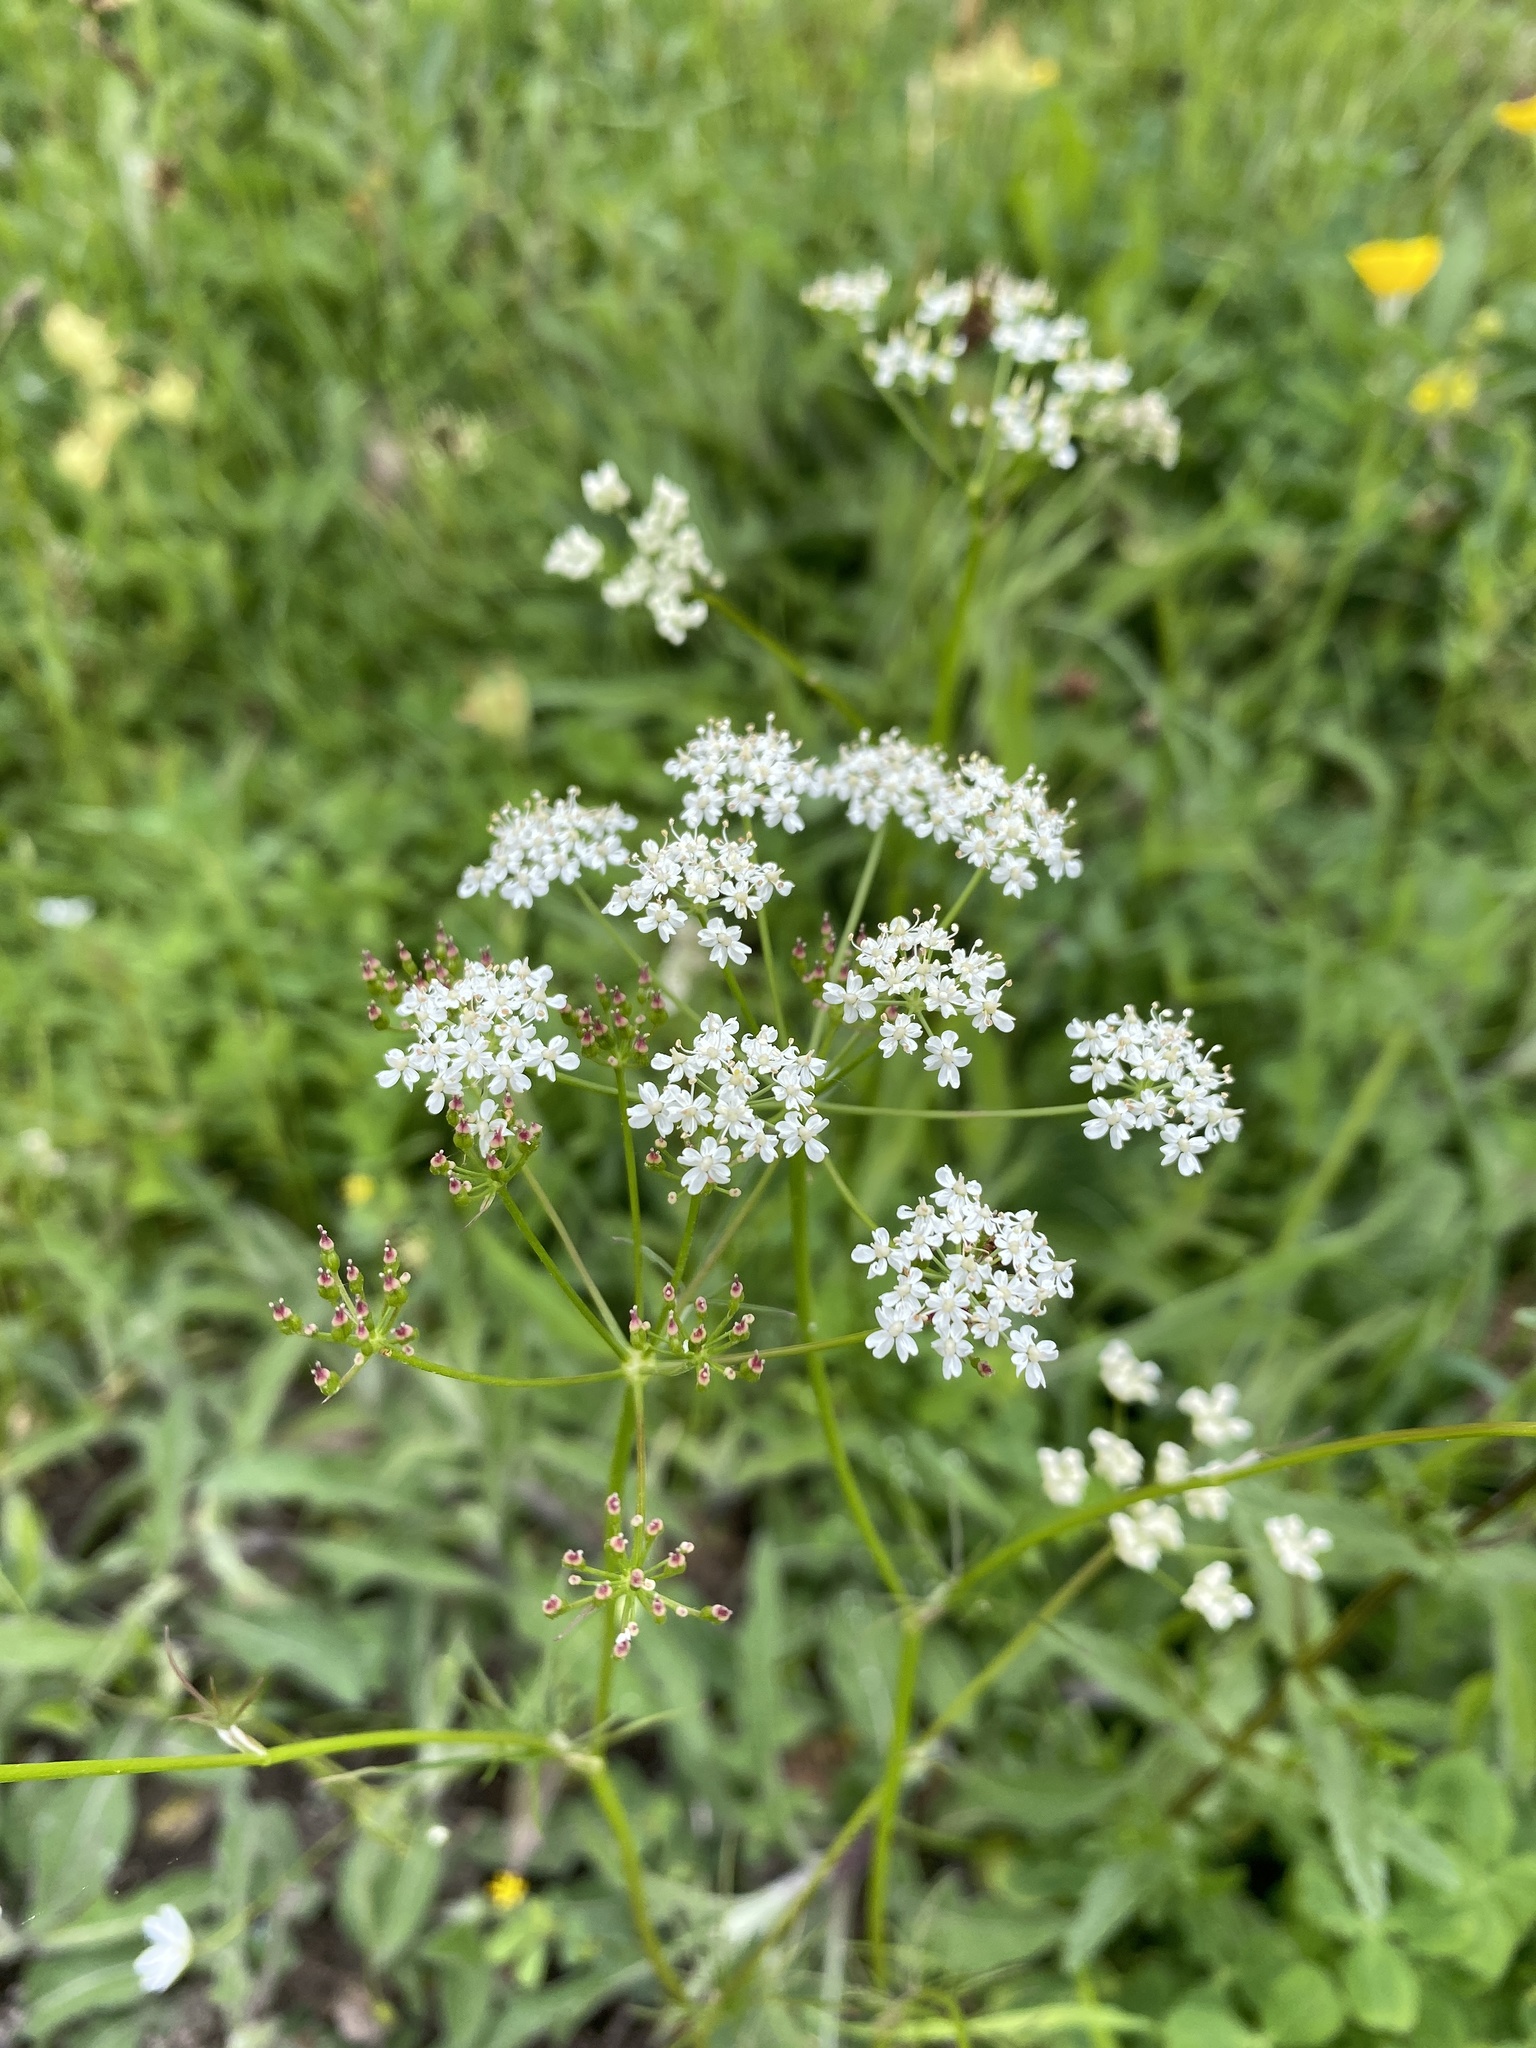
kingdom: Plantae
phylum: Tracheophyta
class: Magnoliopsida
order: Apiales
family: Apiaceae
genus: Conopodium
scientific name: Conopodium majus
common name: Pignut
